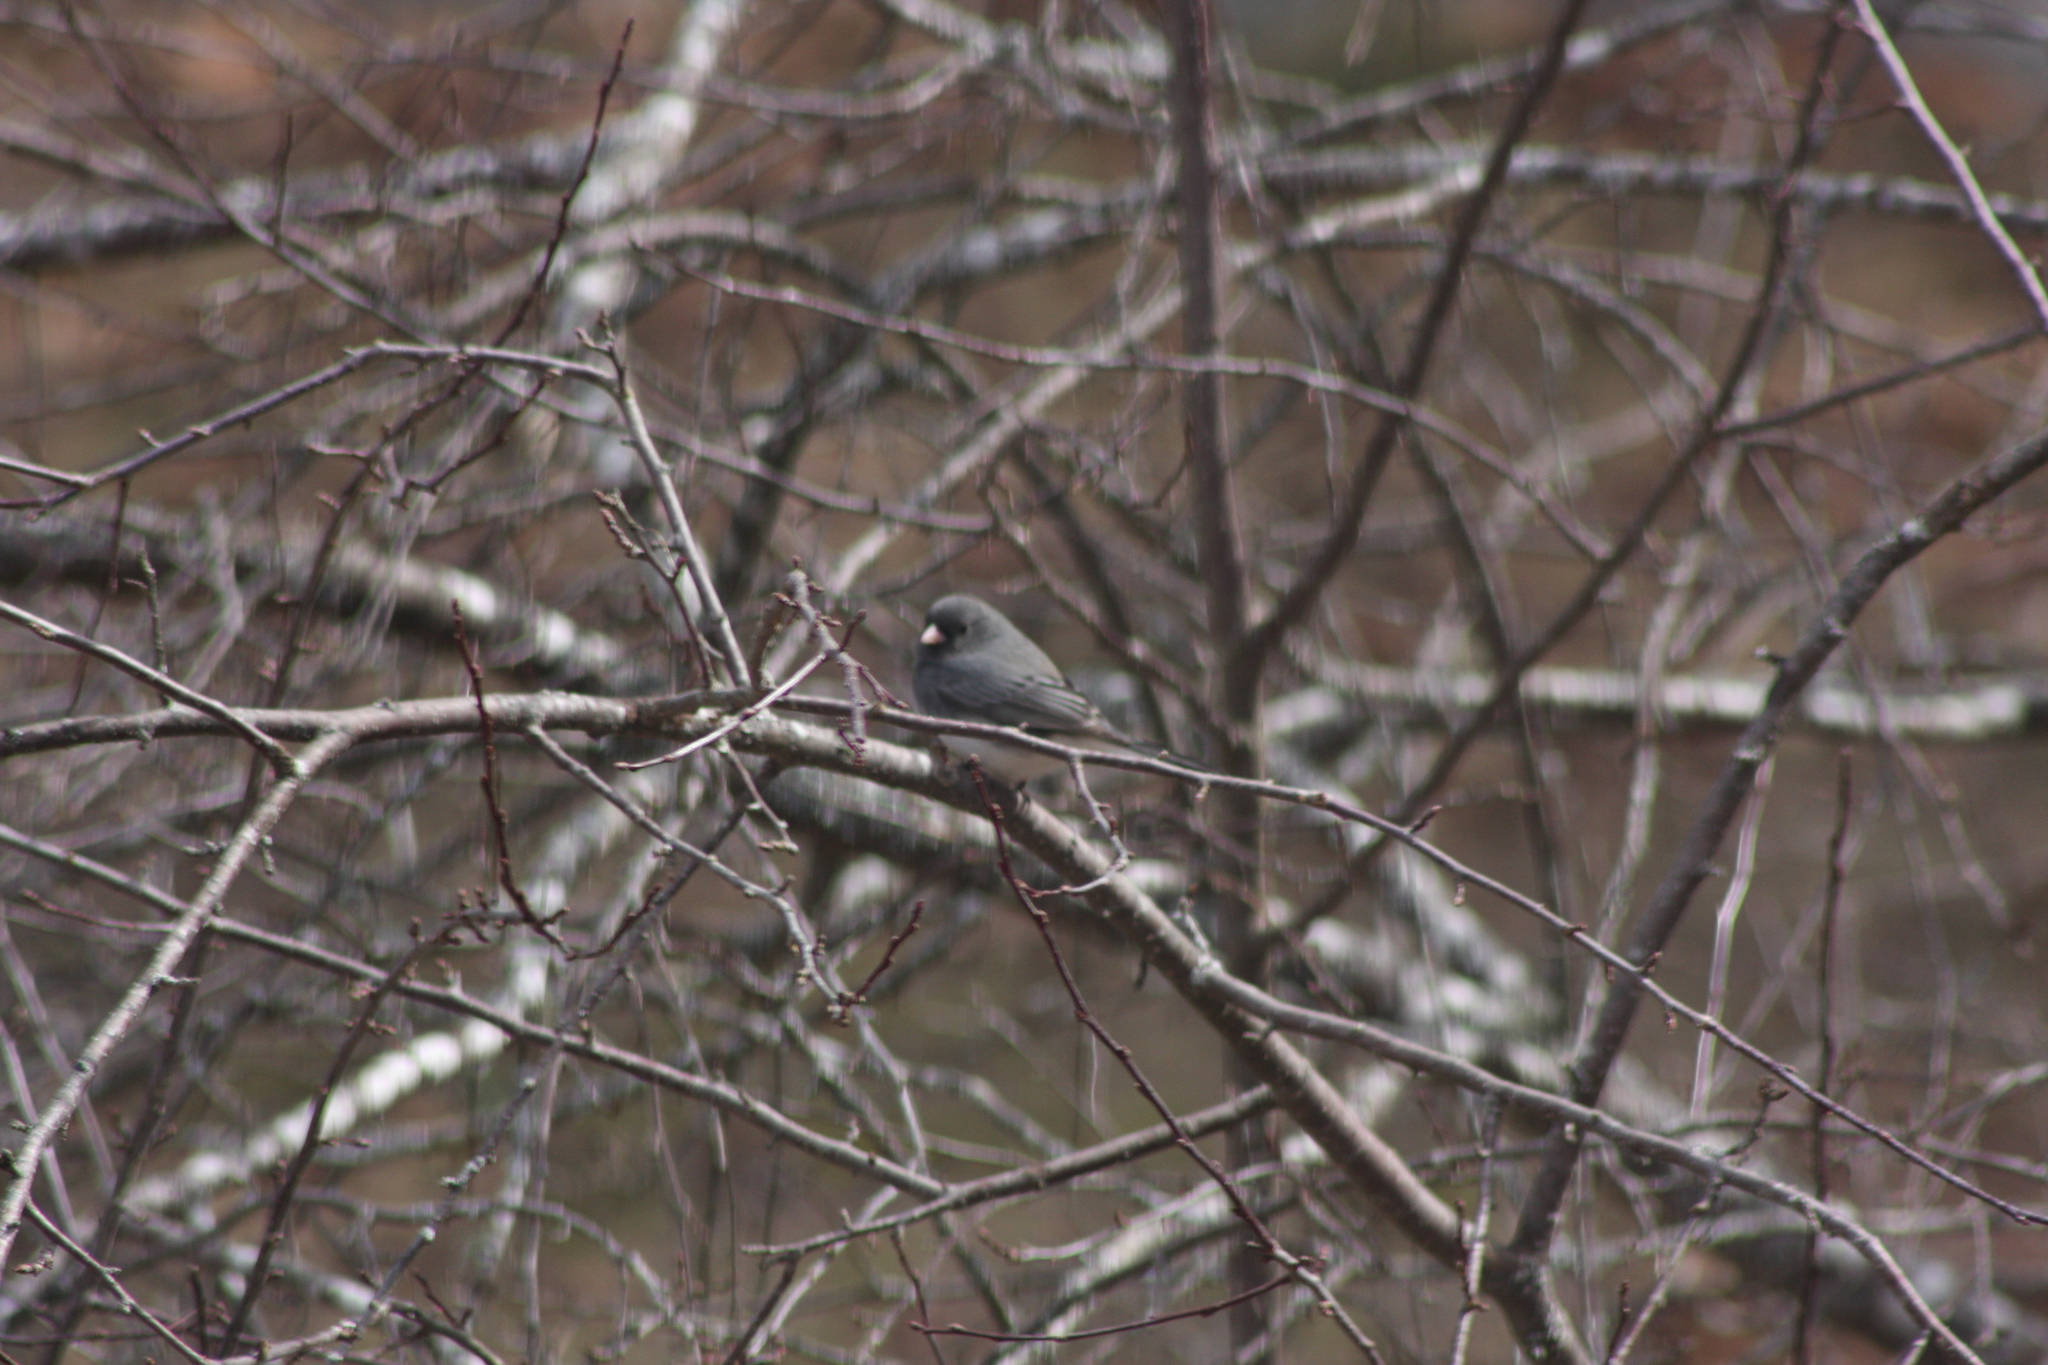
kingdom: Animalia
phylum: Chordata
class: Aves
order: Passeriformes
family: Passerellidae
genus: Junco
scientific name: Junco hyemalis
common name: Dark-eyed junco
